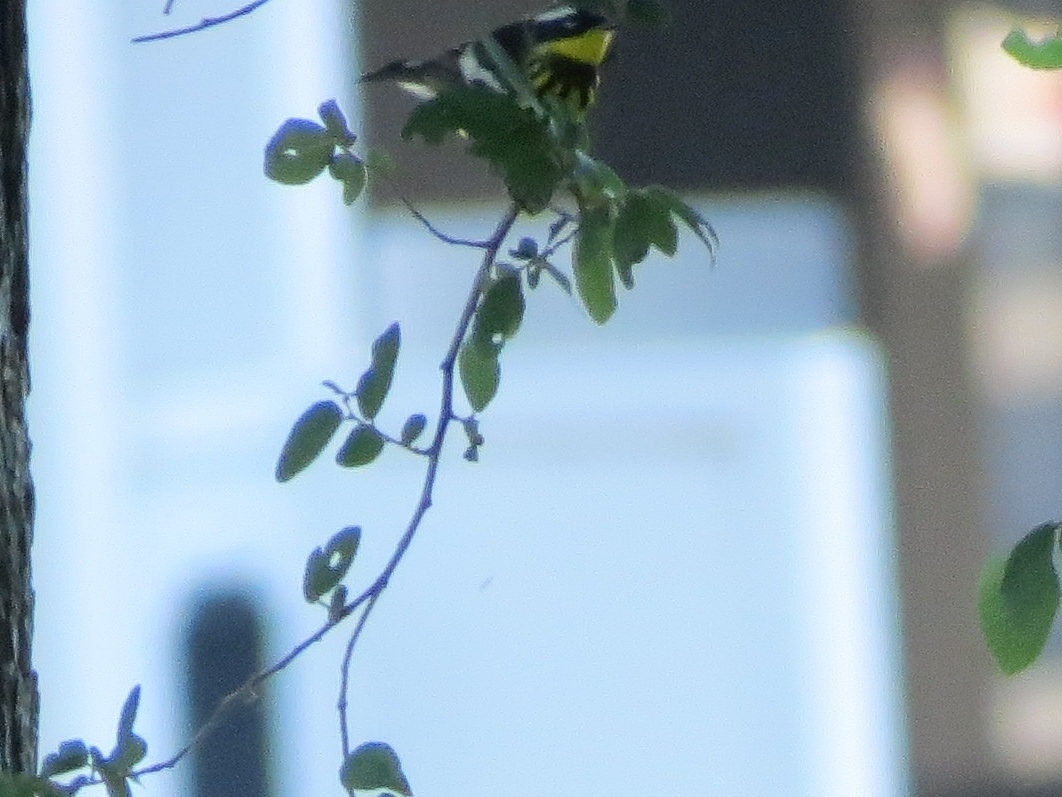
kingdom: Animalia
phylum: Chordata
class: Aves
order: Passeriformes
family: Parulidae
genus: Setophaga
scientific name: Setophaga magnolia
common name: Magnolia warbler
